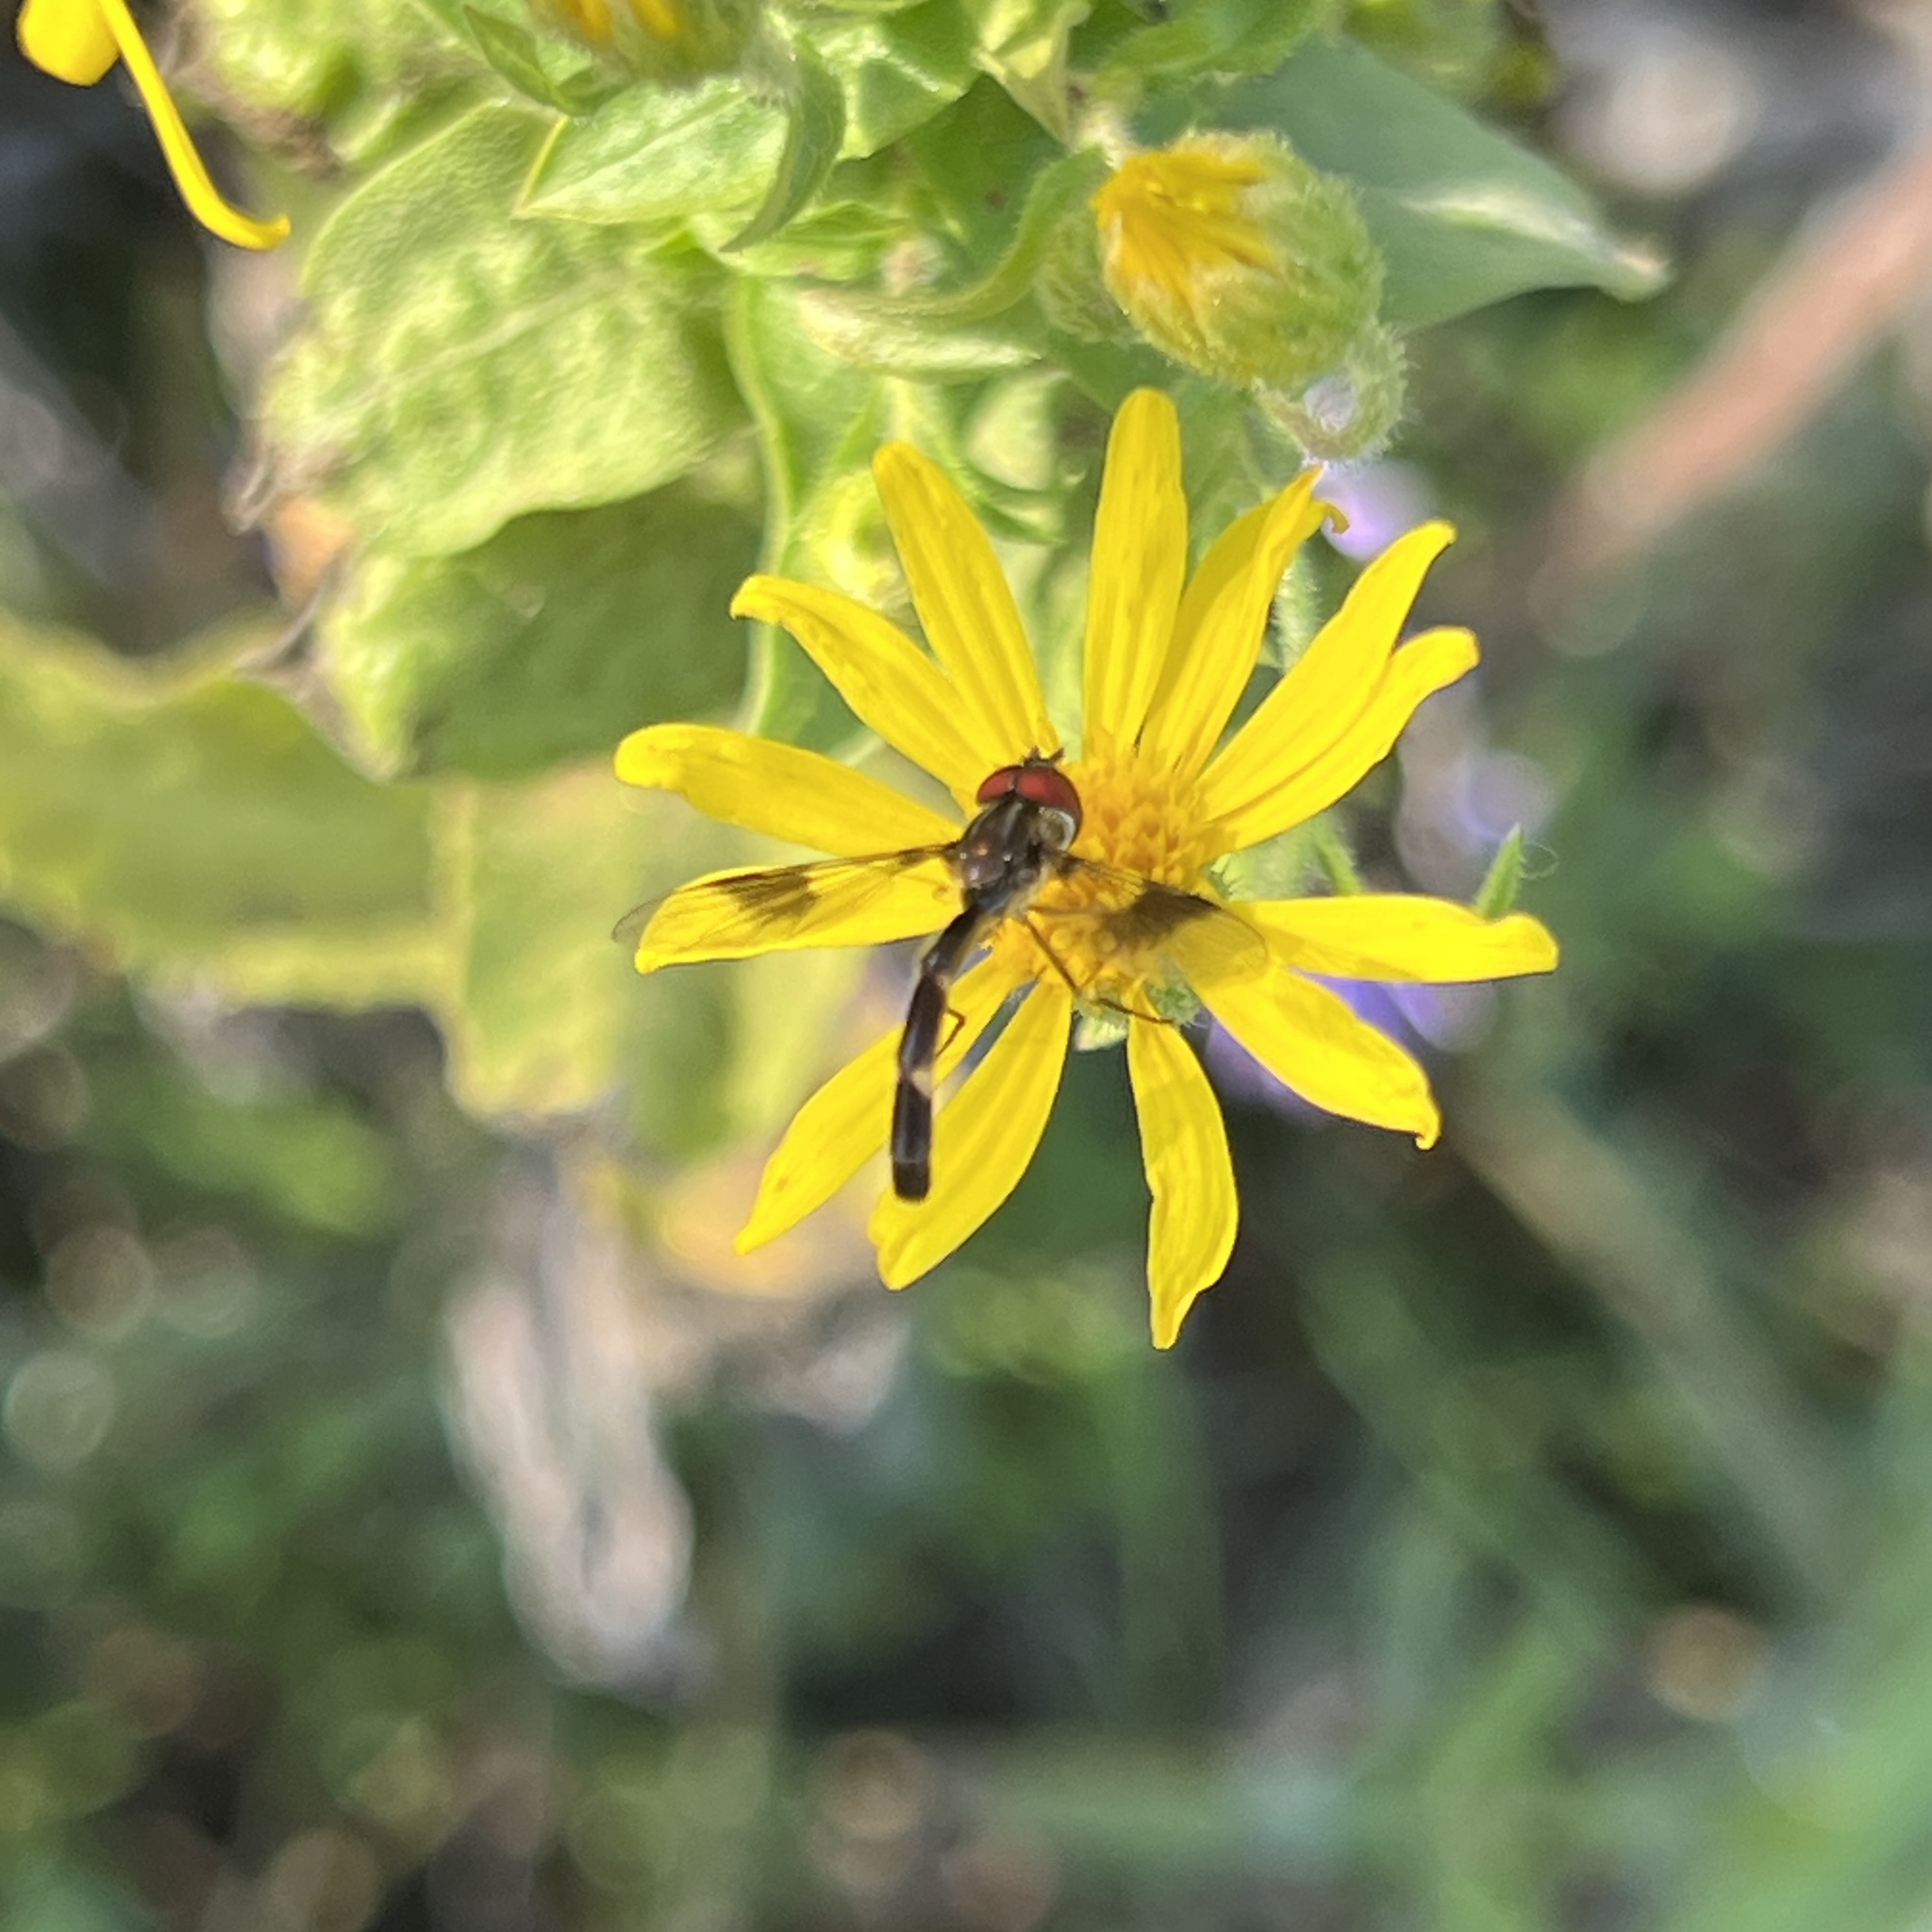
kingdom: Animalia
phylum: Arthropoda
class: Insecta
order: Diptera
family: Syrphidae
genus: Hypocritanus
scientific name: Hypocritanus fascipennis
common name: Eastern band-winged hover fly
